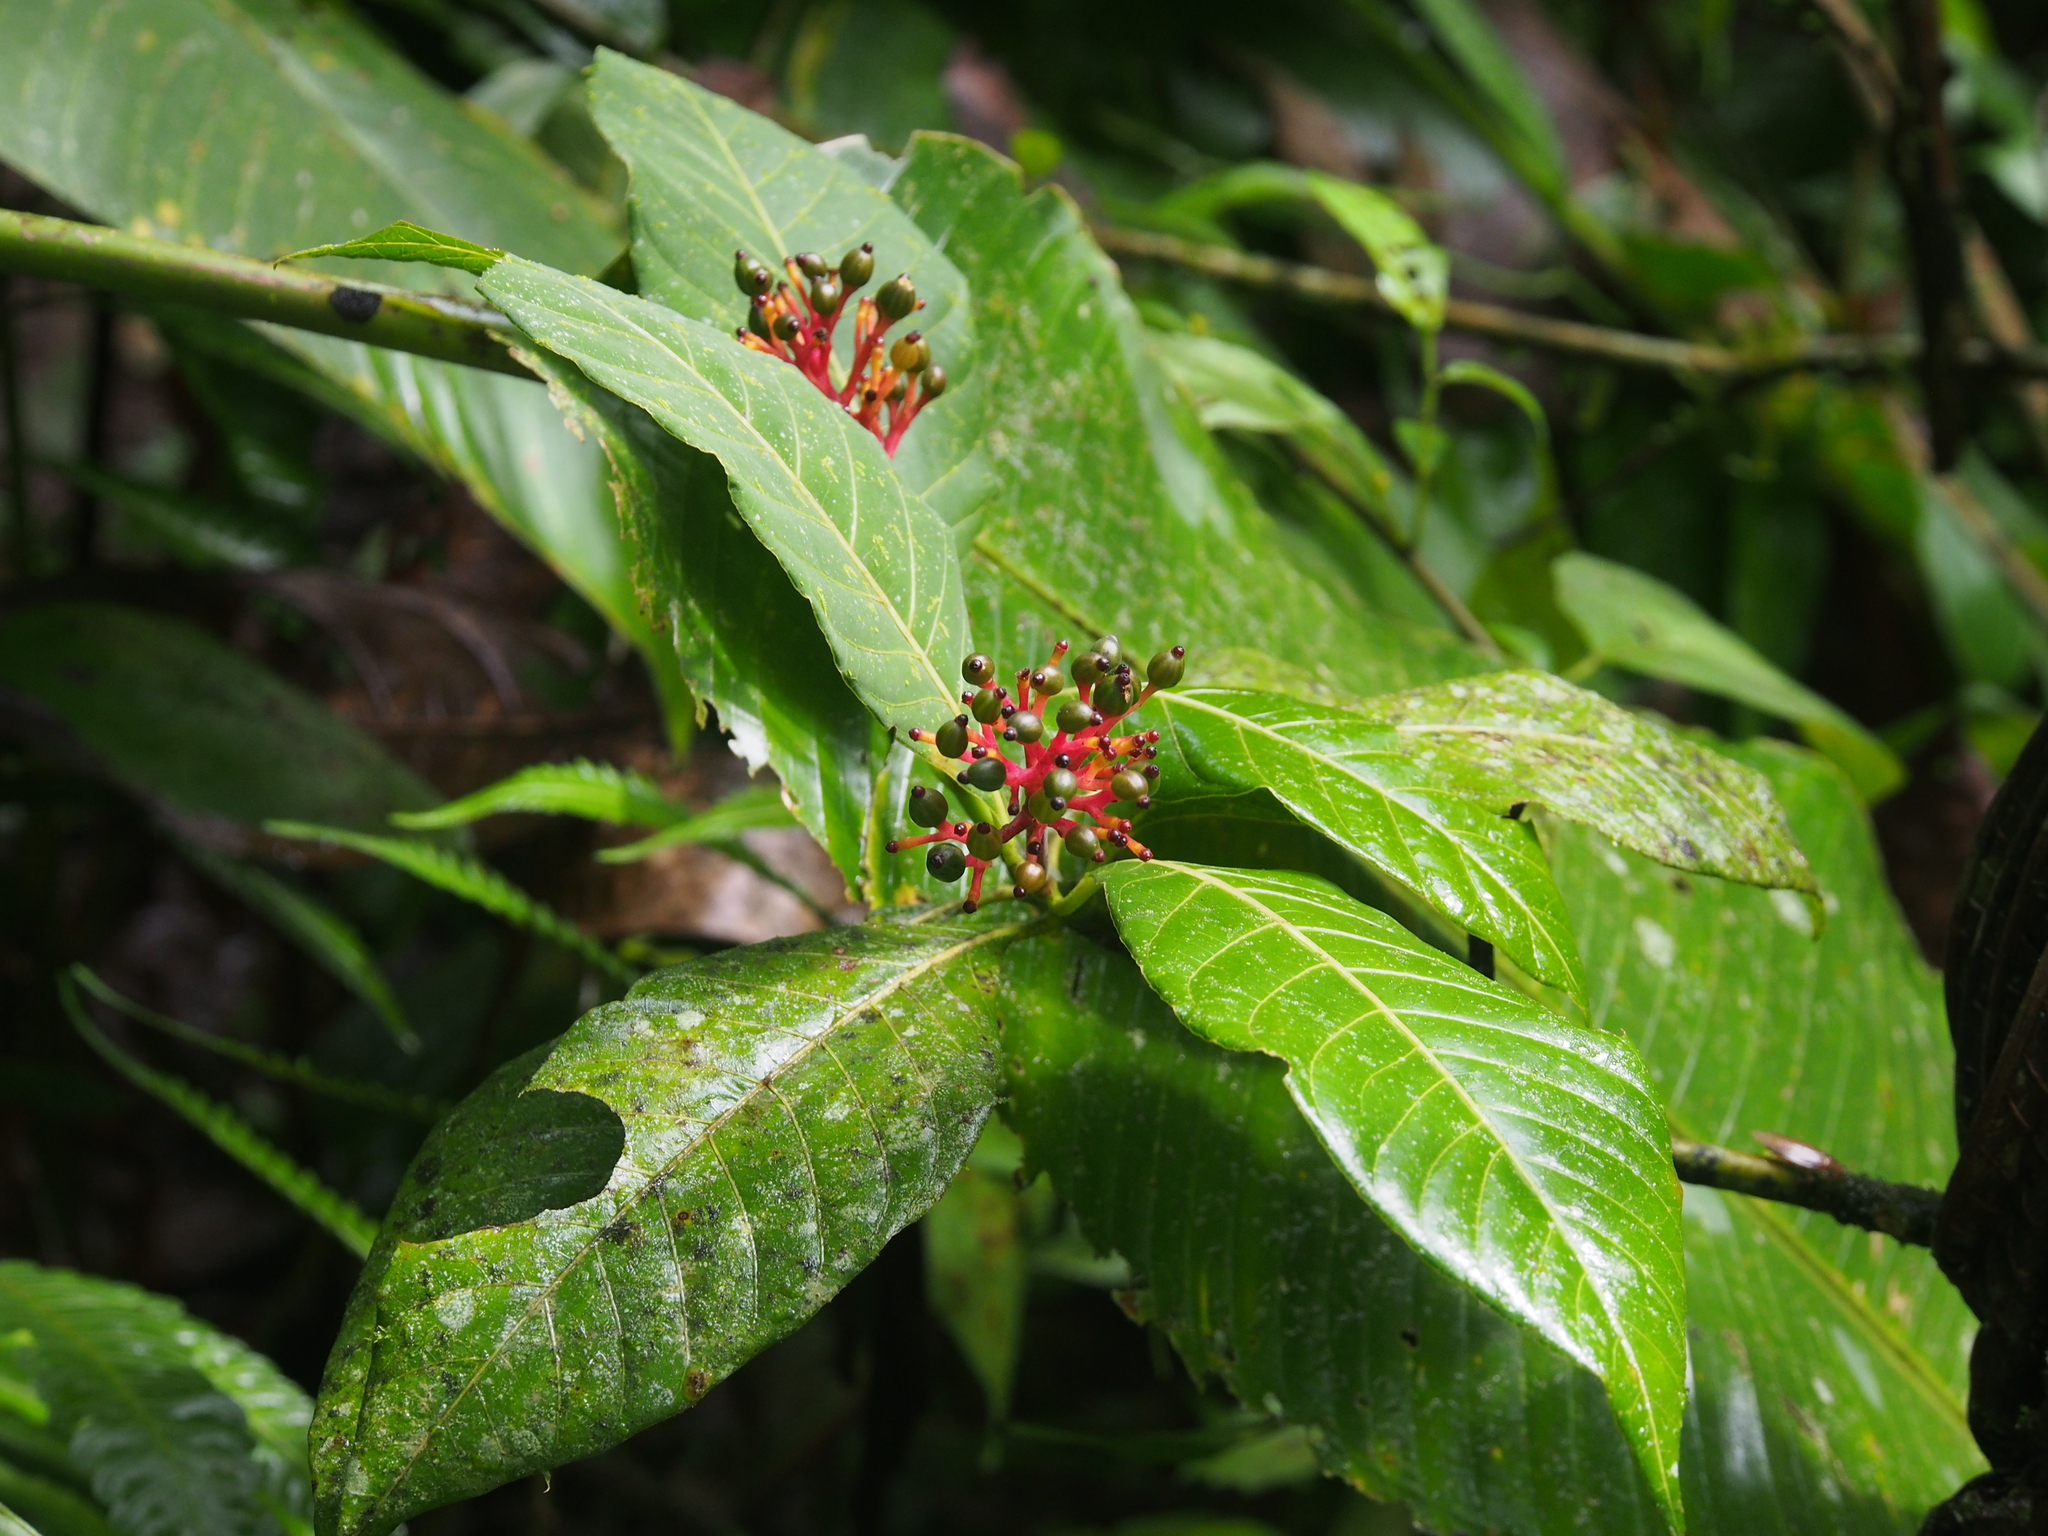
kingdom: Plantae
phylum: Tracheophyta
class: Magnoliopsida
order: Gentianales
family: Rubiaceae
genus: Palicourea
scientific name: Palicourea crocea
